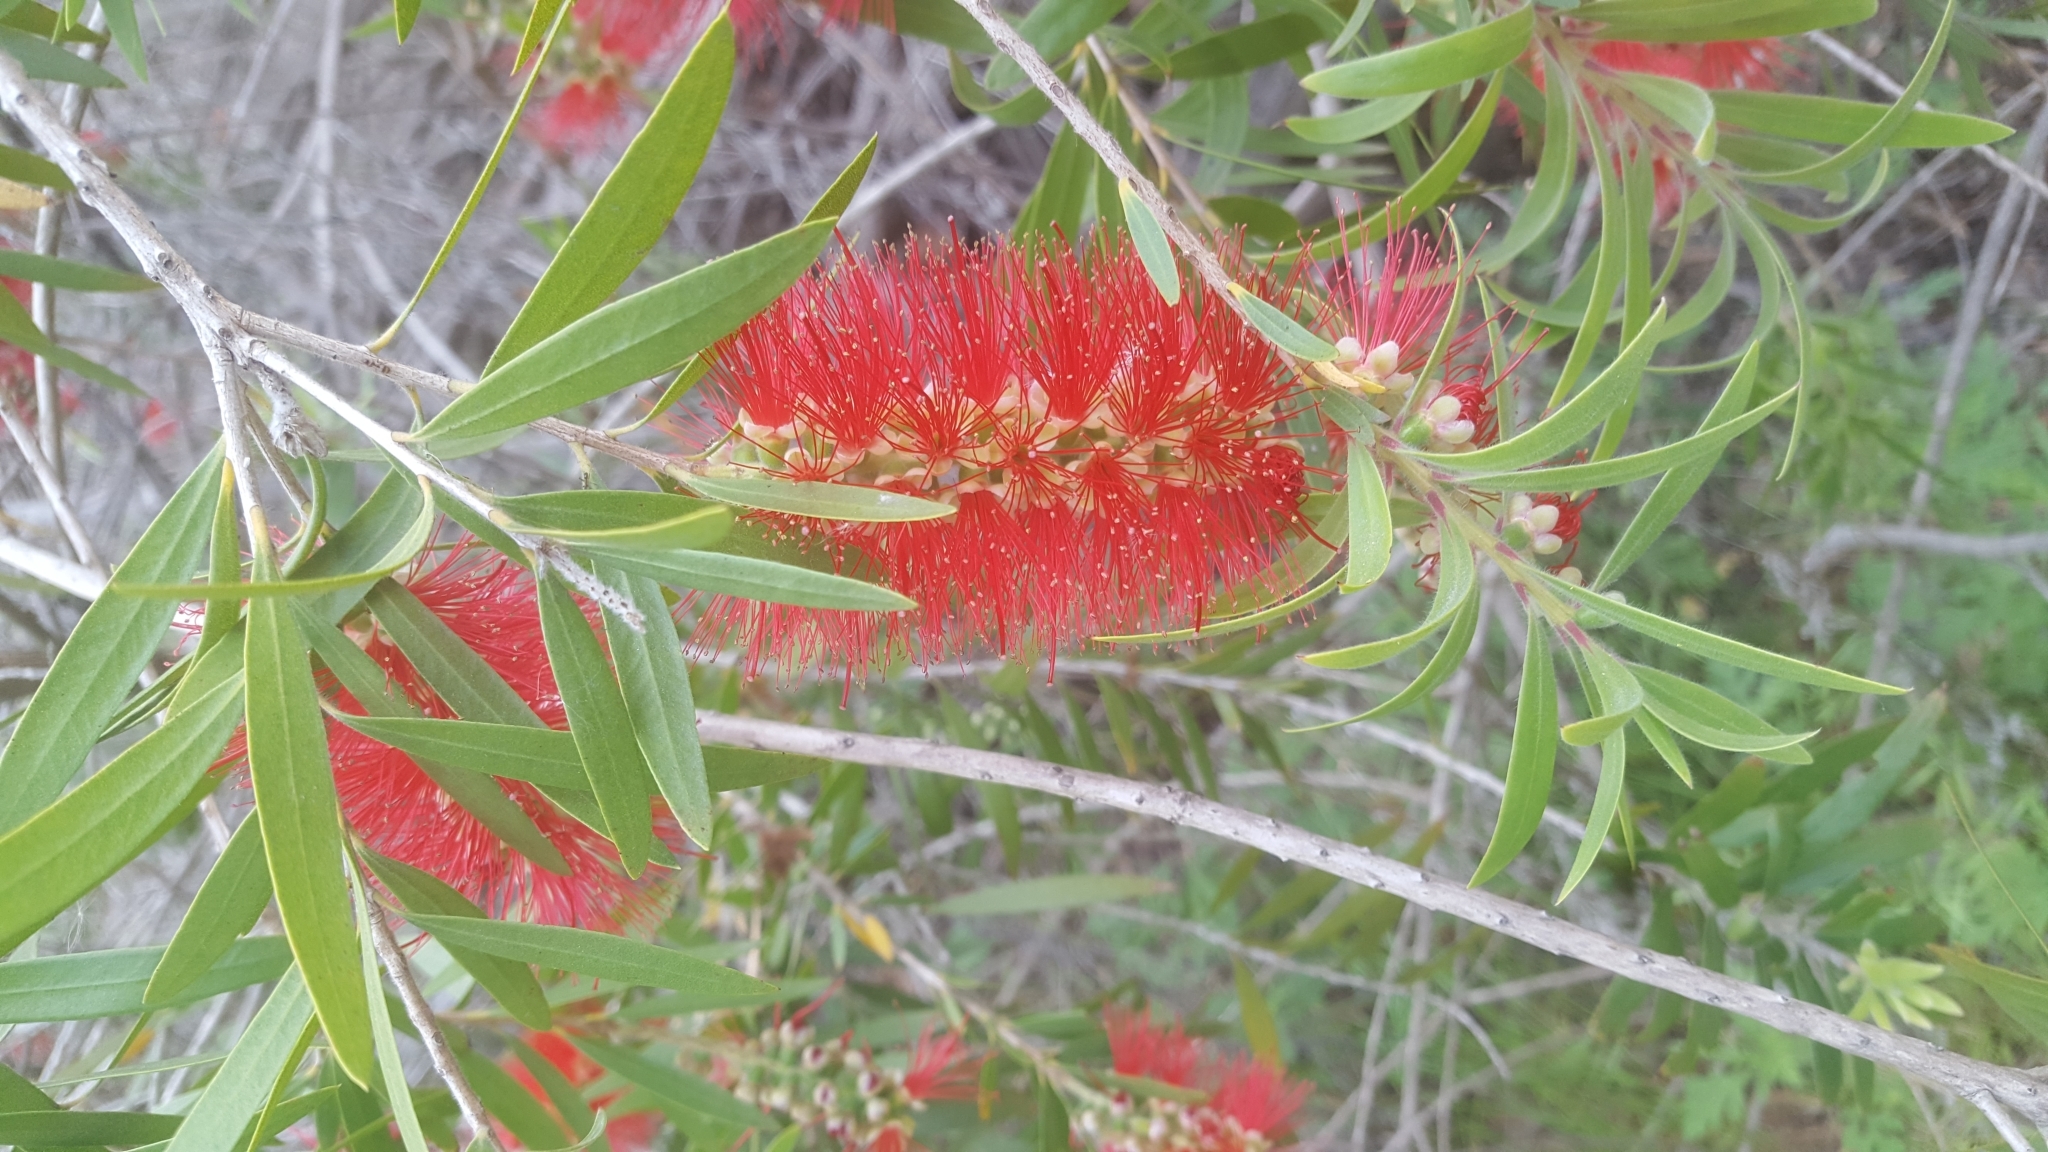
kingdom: Plantae
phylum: Tracheophyta
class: Magnoliopsida
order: Myrtales
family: Myrtaceae
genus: Callistemon
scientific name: Callistemon viminalis
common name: Drooping bottlebrush
